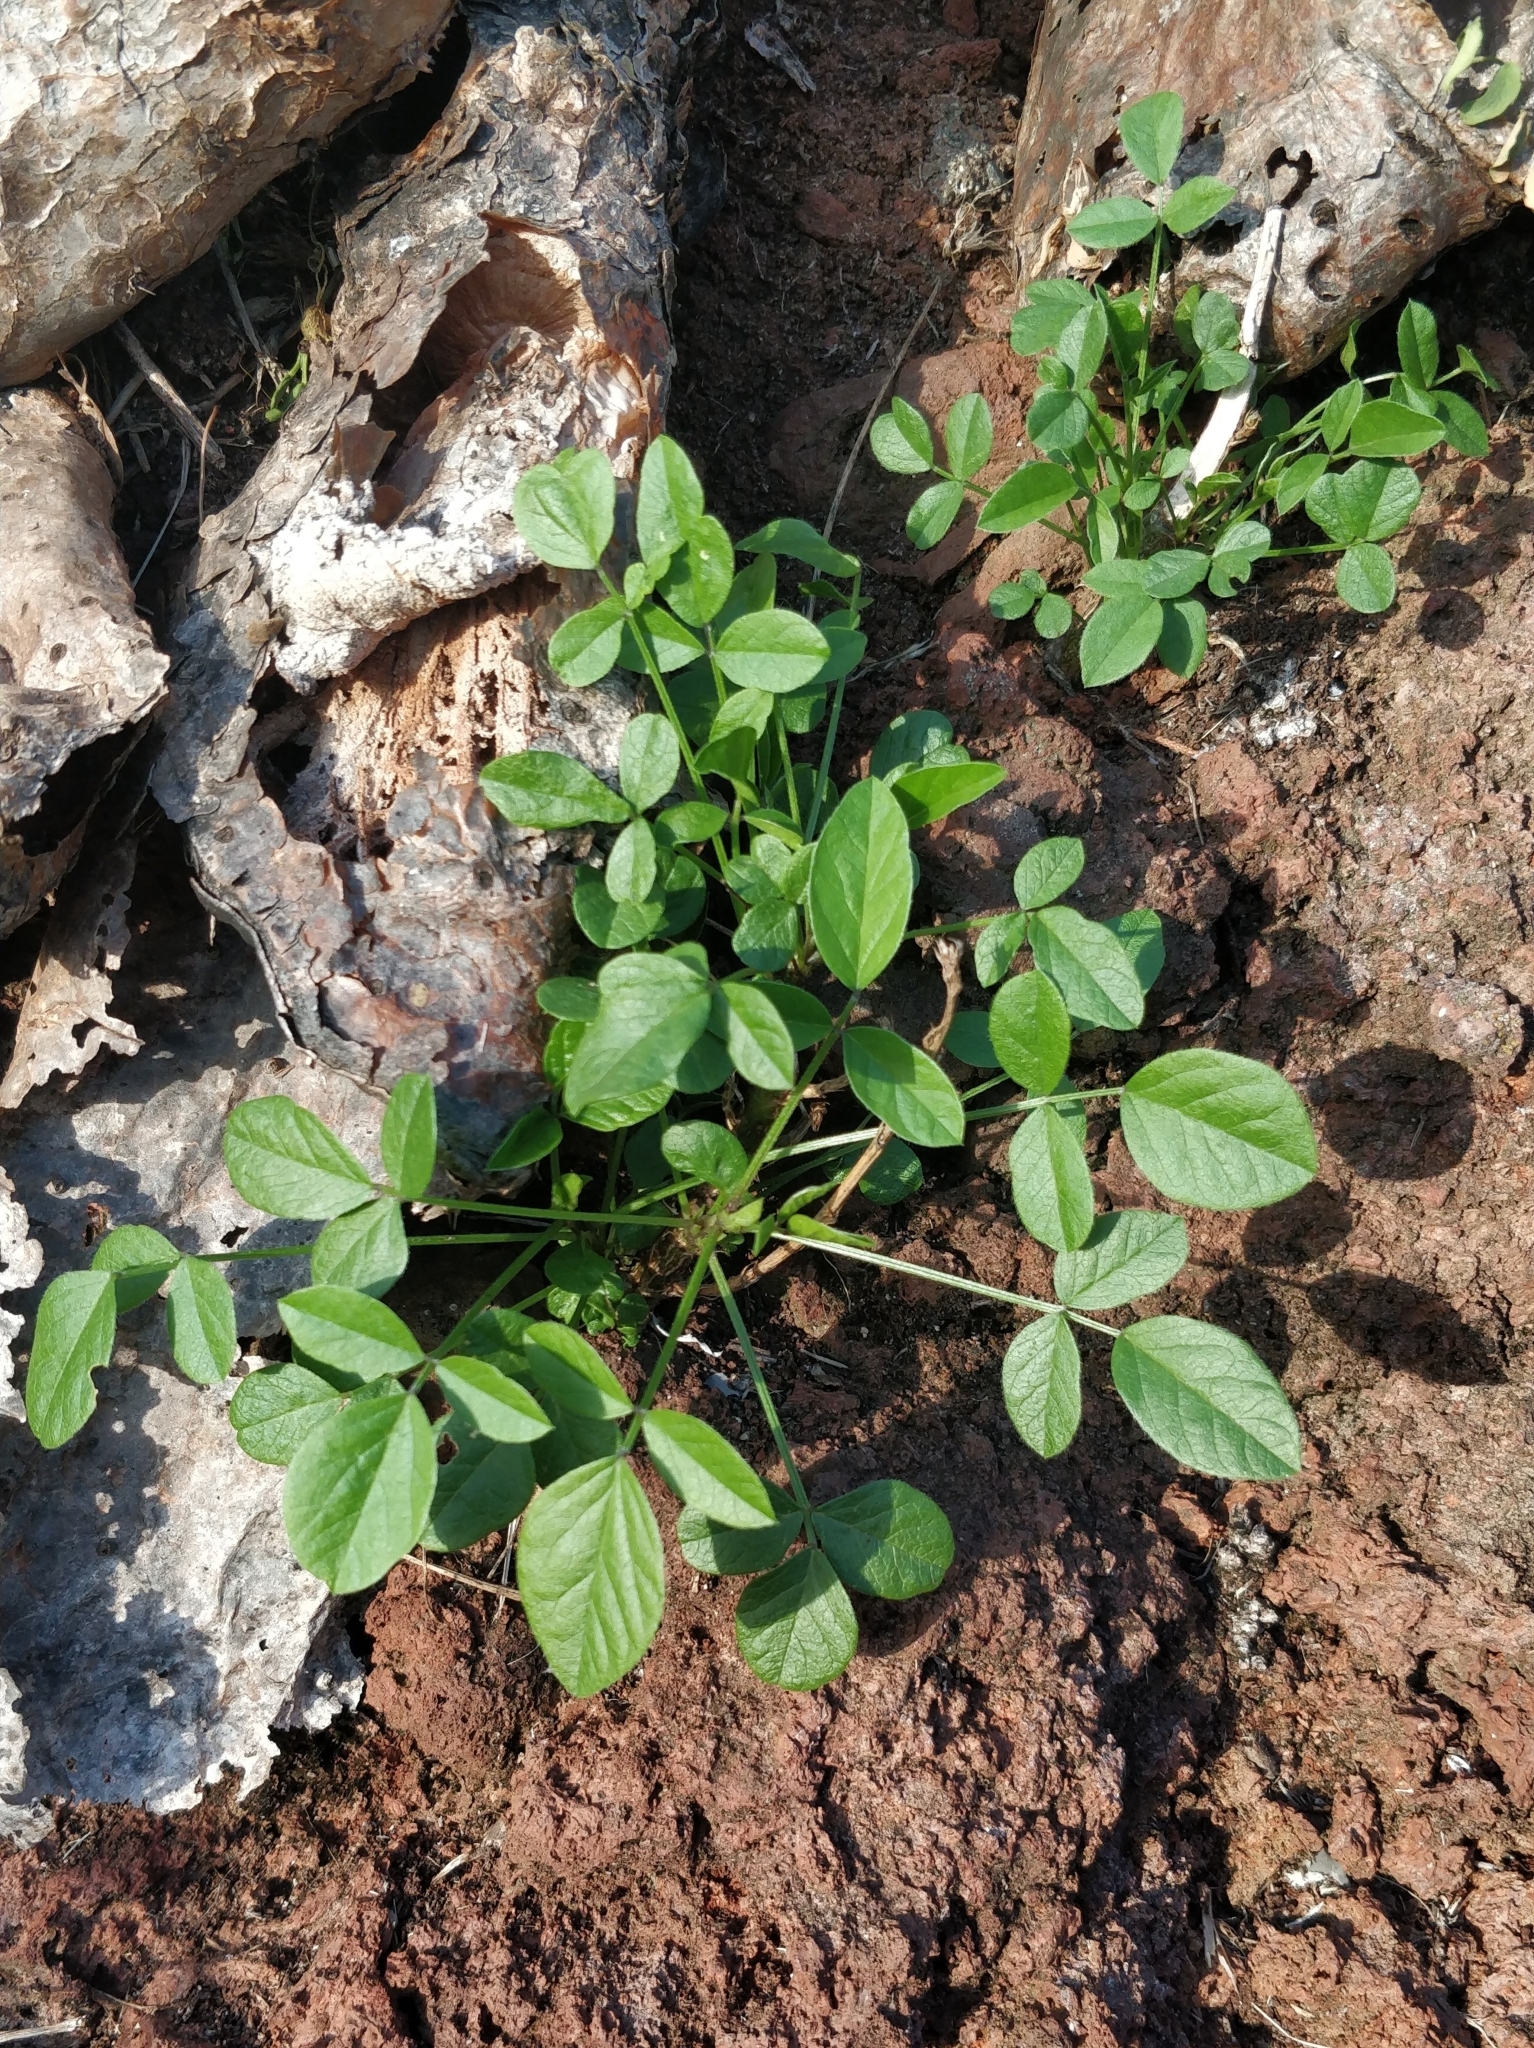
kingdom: Plantae
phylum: Tracheophyta
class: Magnoliopsida
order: Fabales
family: Fabaceae
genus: Bituminaria
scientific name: Bituminaria bituminosa
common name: Arabian pea
